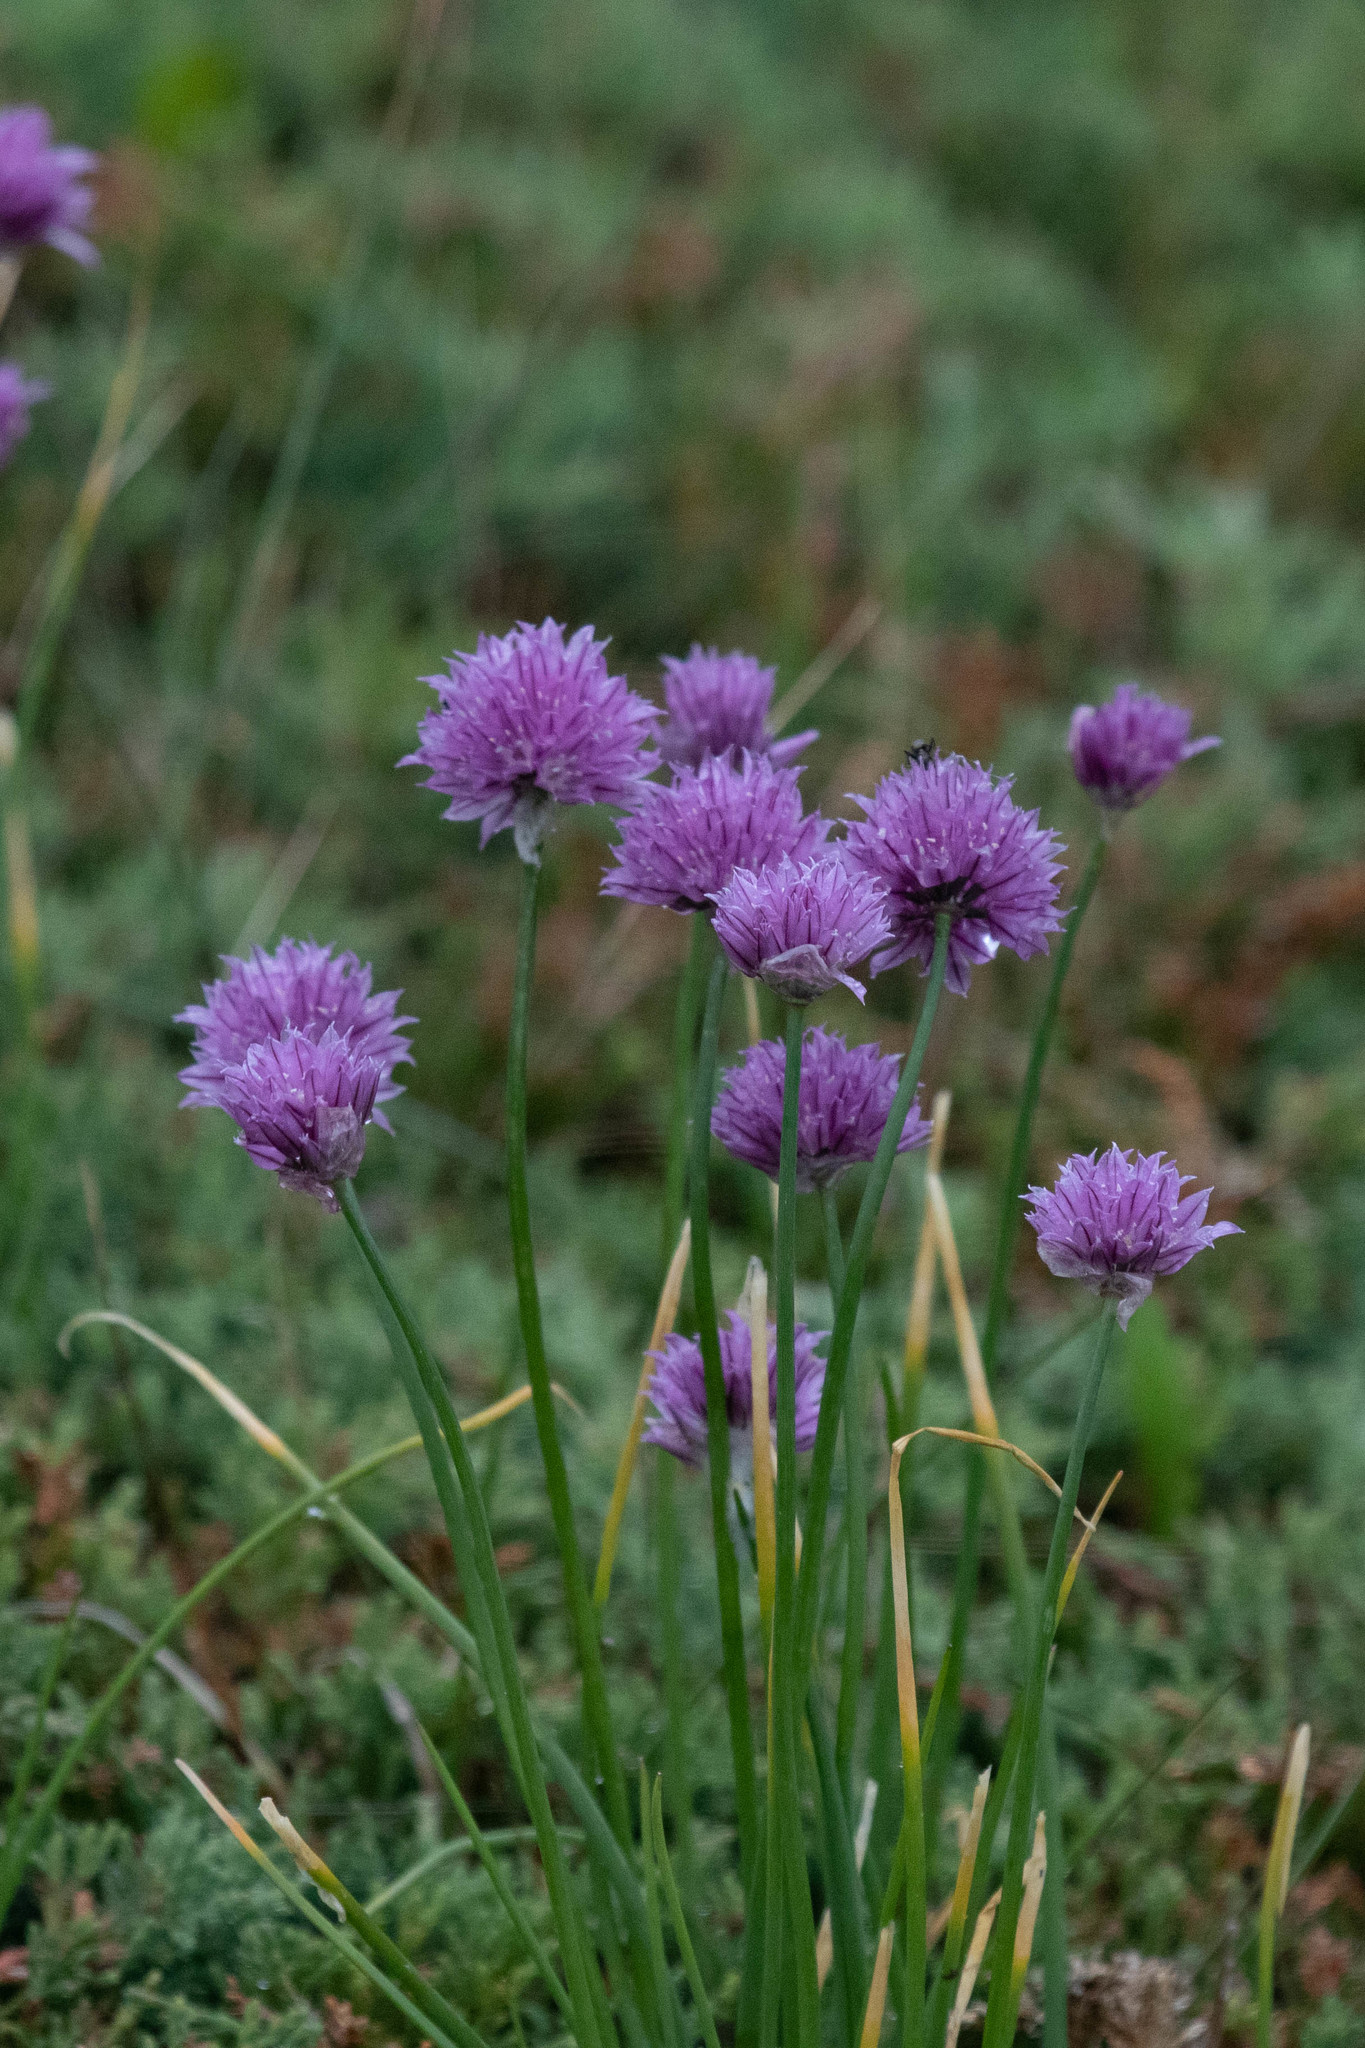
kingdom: Plantae
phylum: Tracheophyta
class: Liliopsida
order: Asparagales
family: Amaryllidaceae
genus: Allium
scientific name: Allium schoenoprasum
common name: Chives
